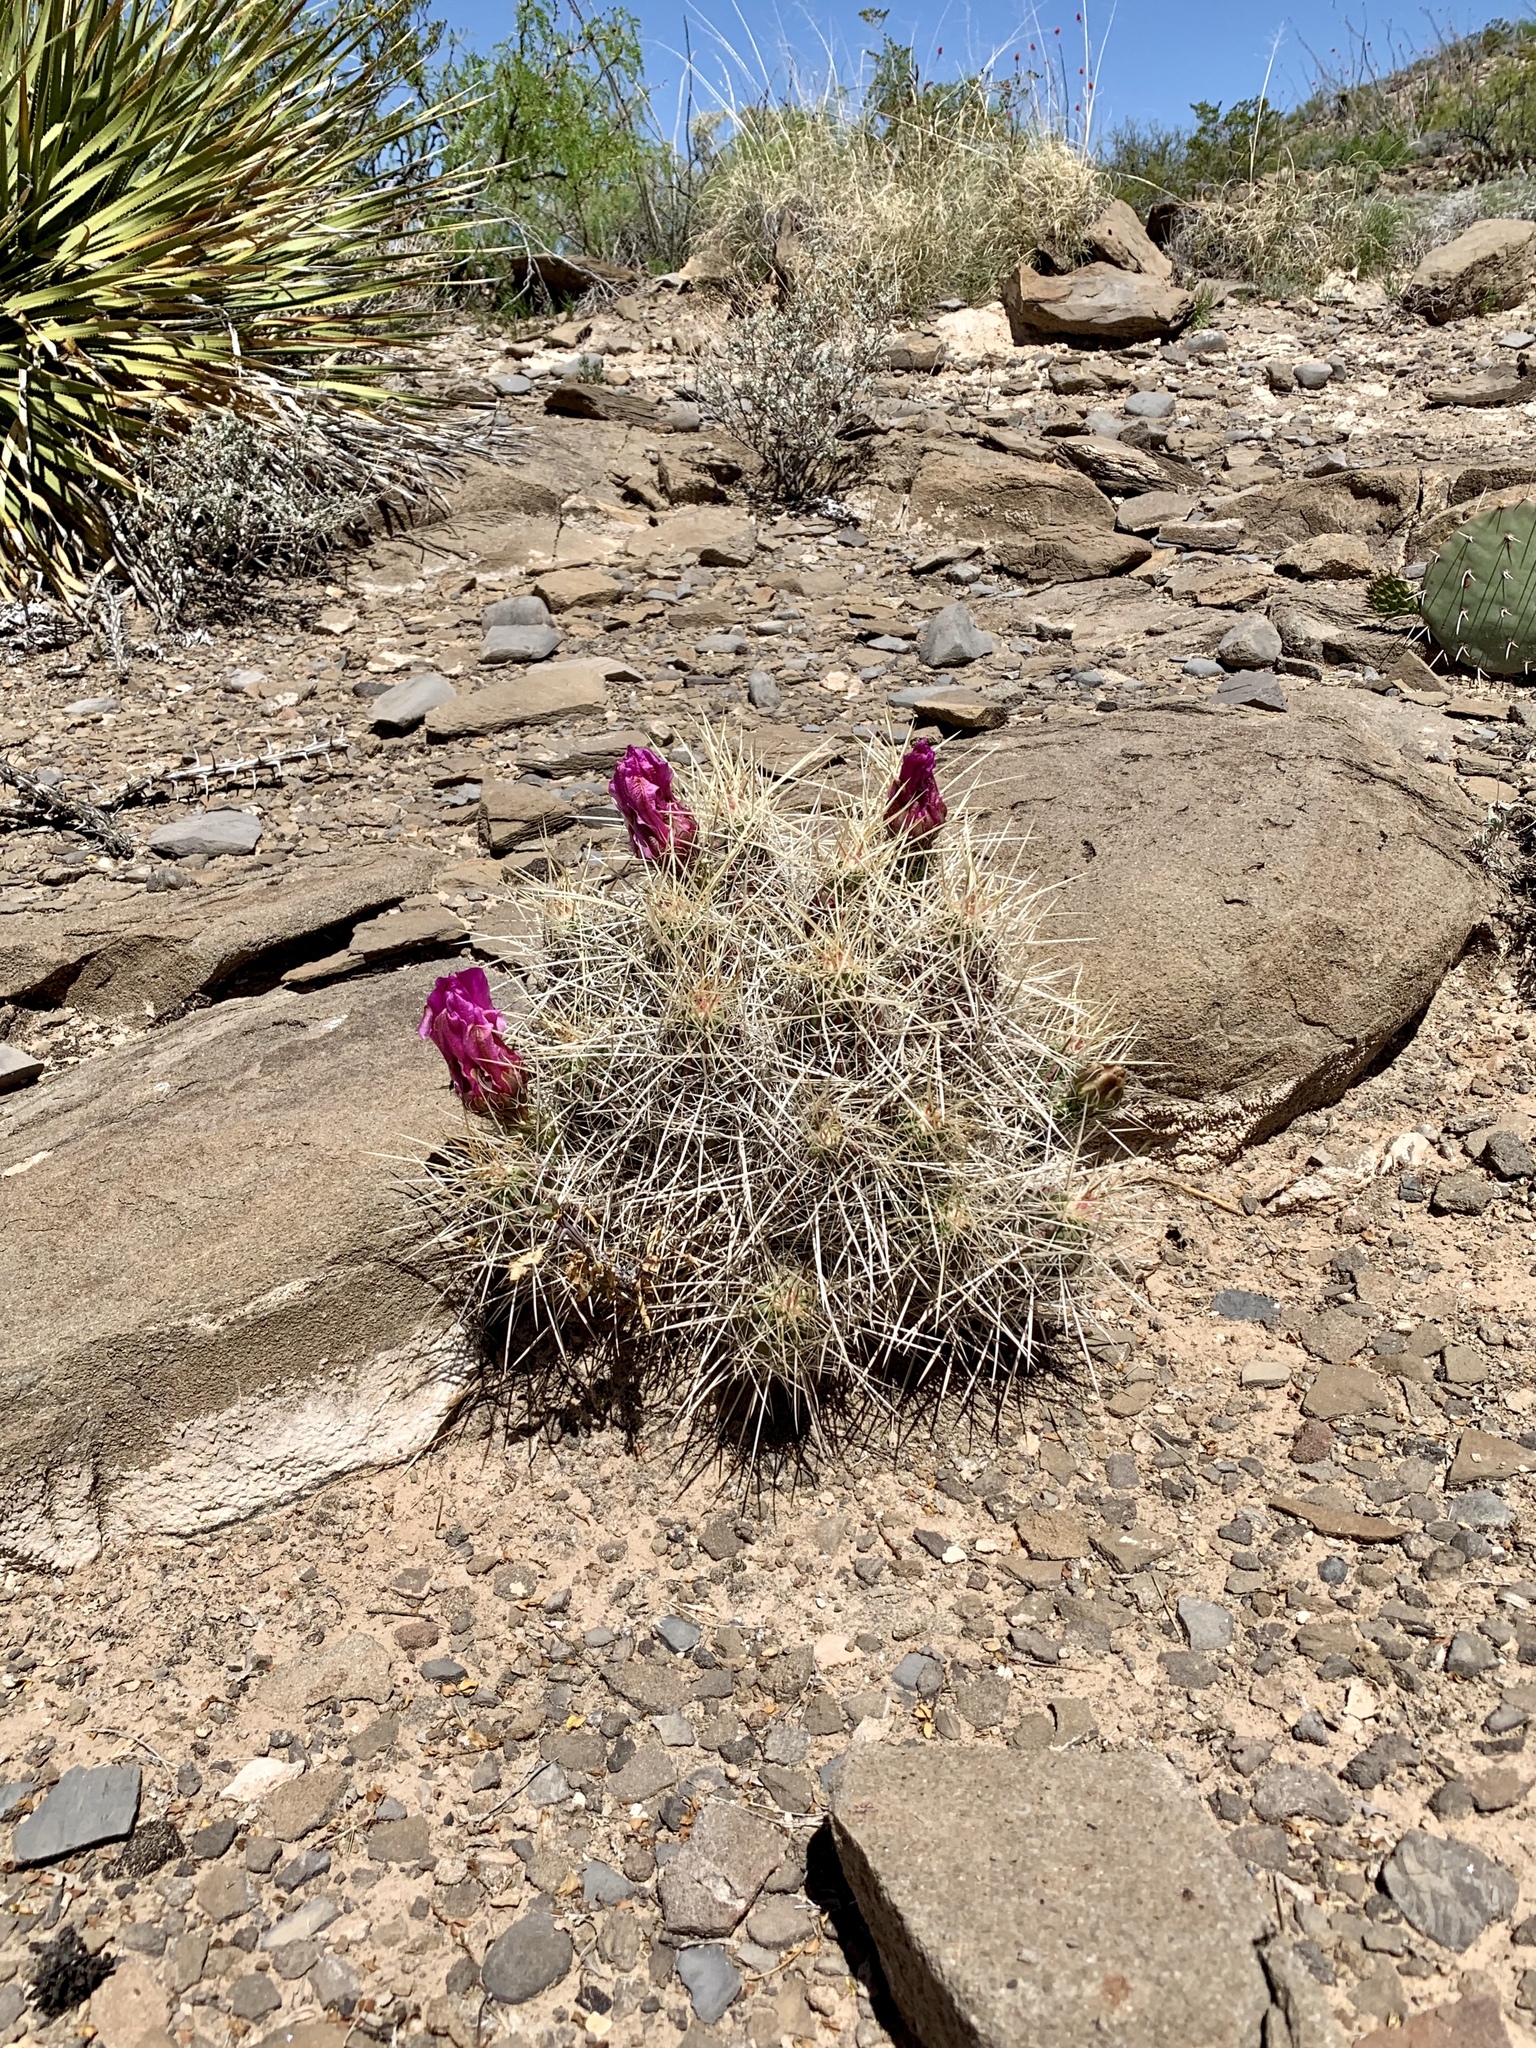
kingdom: Plantae
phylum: Tracheophyta
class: Magnoliopsida
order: Caryophyllales
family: Cactaceae
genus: Echinocereus
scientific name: Echinocereus stramineus
